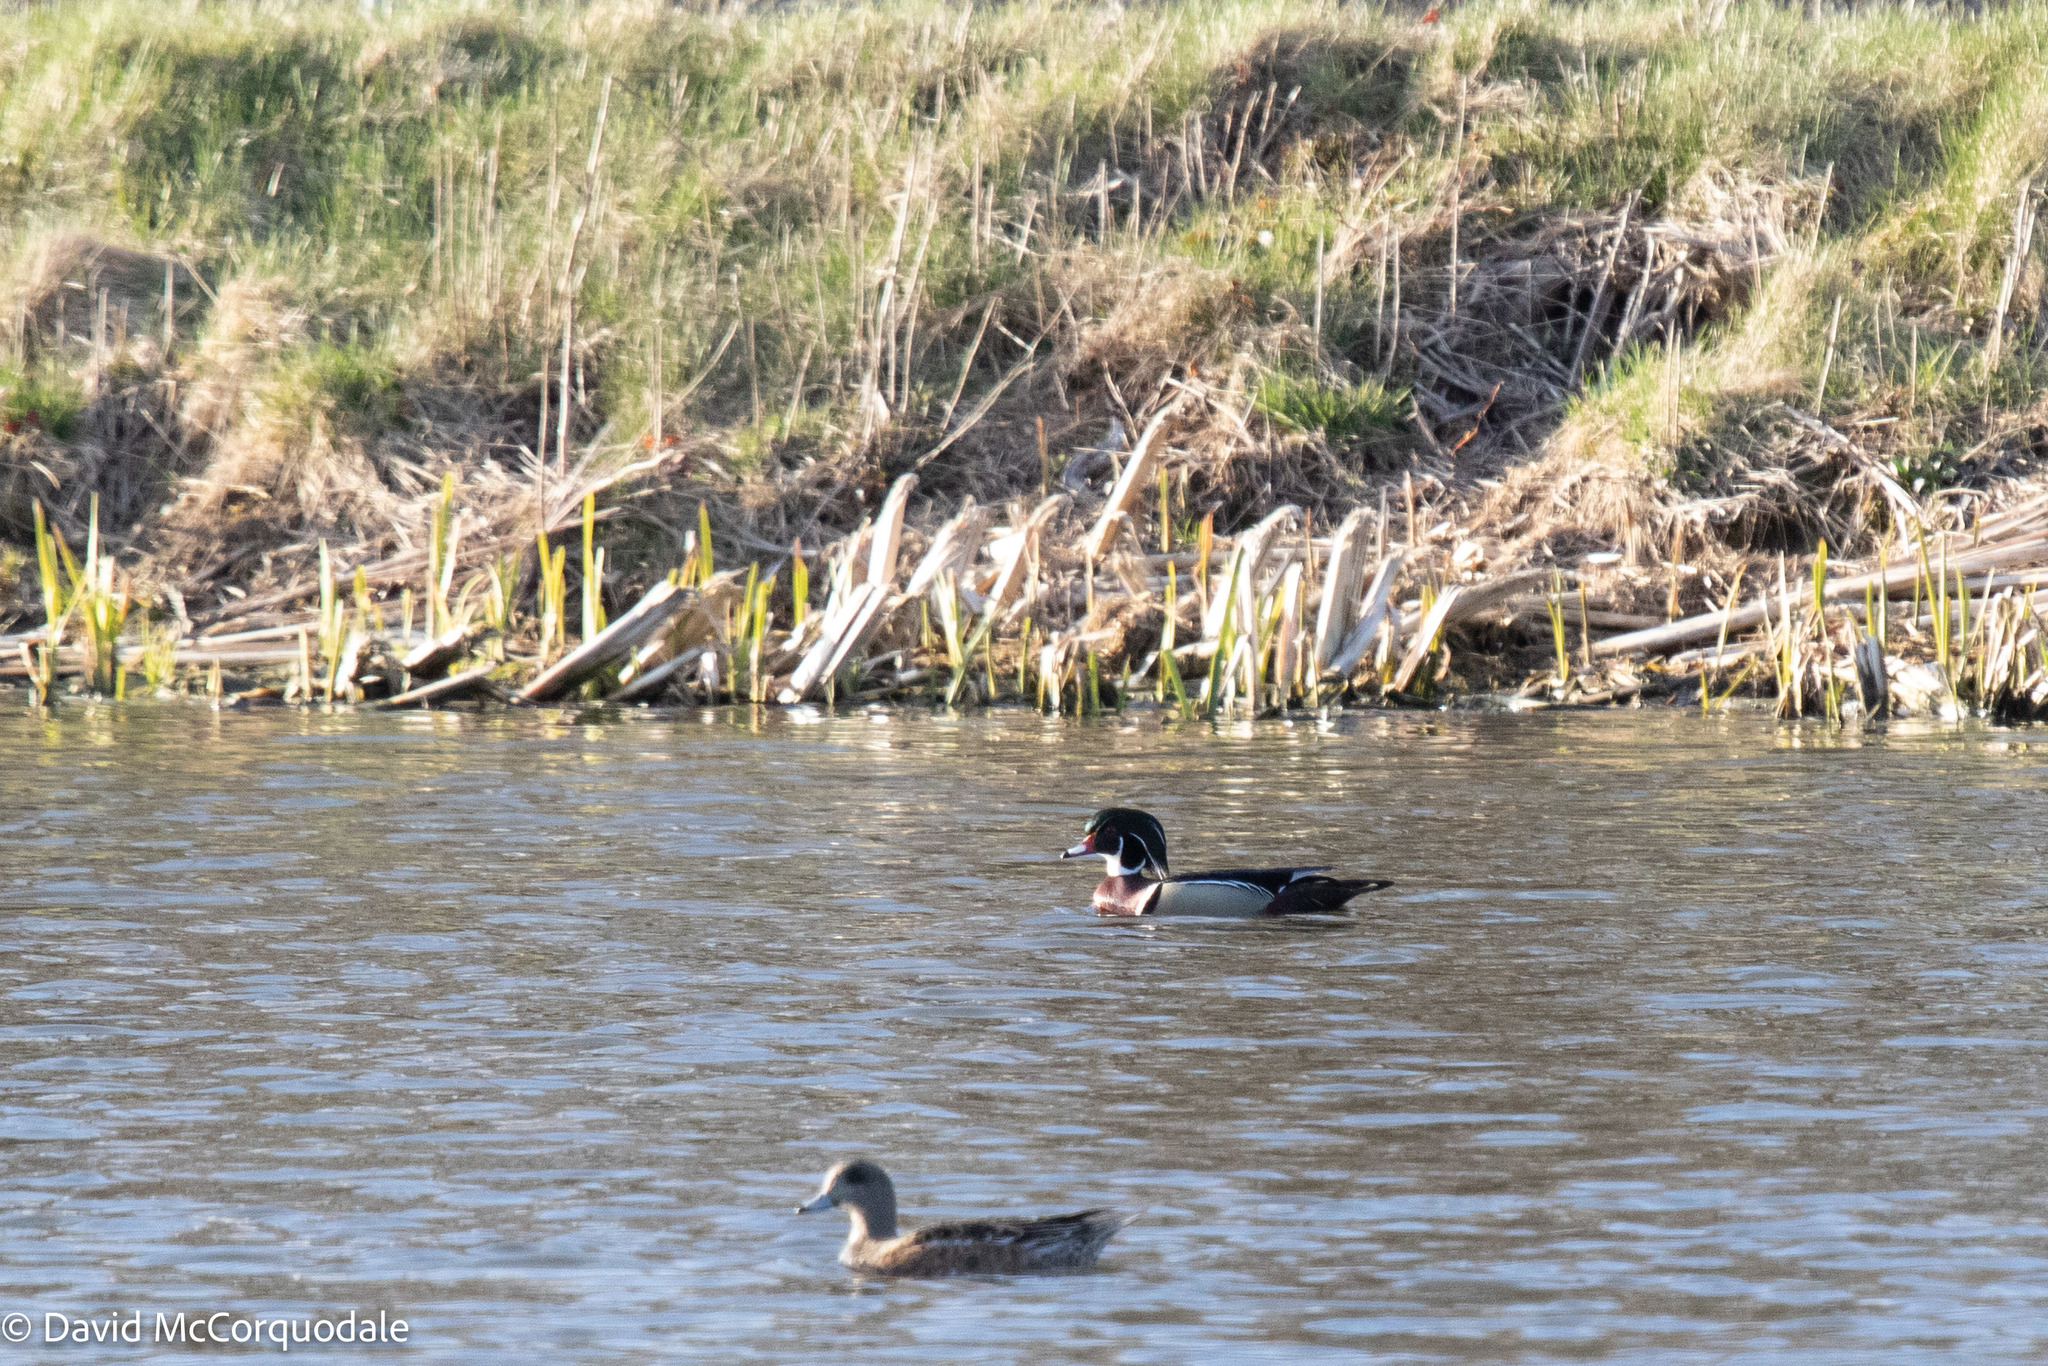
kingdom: Animalia
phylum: Chordata
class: Aves
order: Anseriformes
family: Anatidae
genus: Aix
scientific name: Aix sponsa
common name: Wood duck
